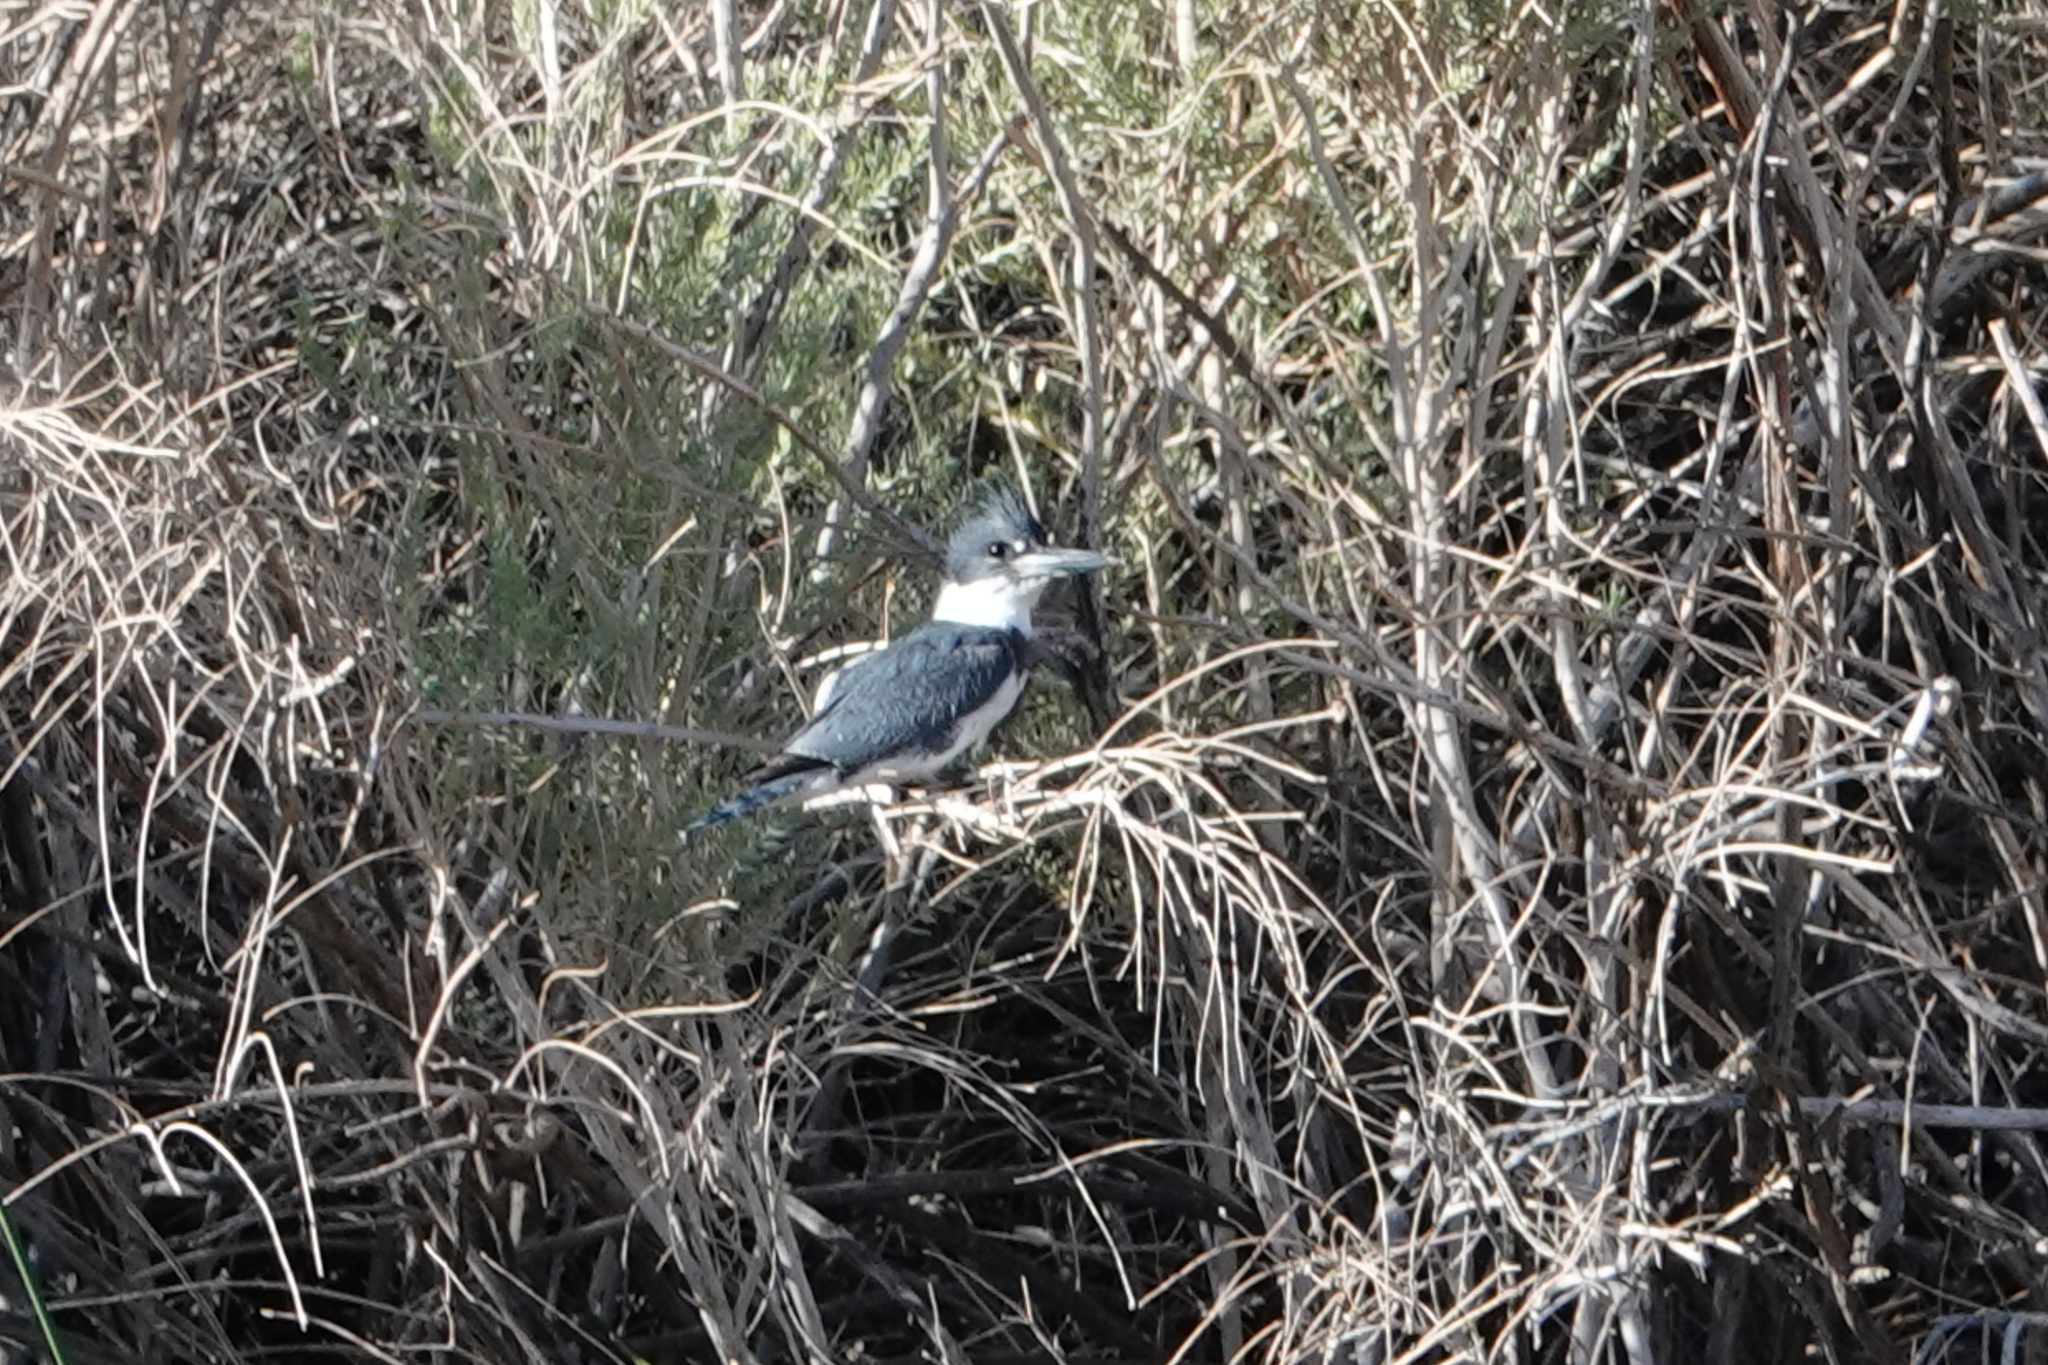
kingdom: Animalia
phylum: Chordata
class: Aves
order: Coraciiformes
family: Alcedinidae
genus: Megaceryle
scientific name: Megaceryle alcyon
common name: Belted kingfisher
